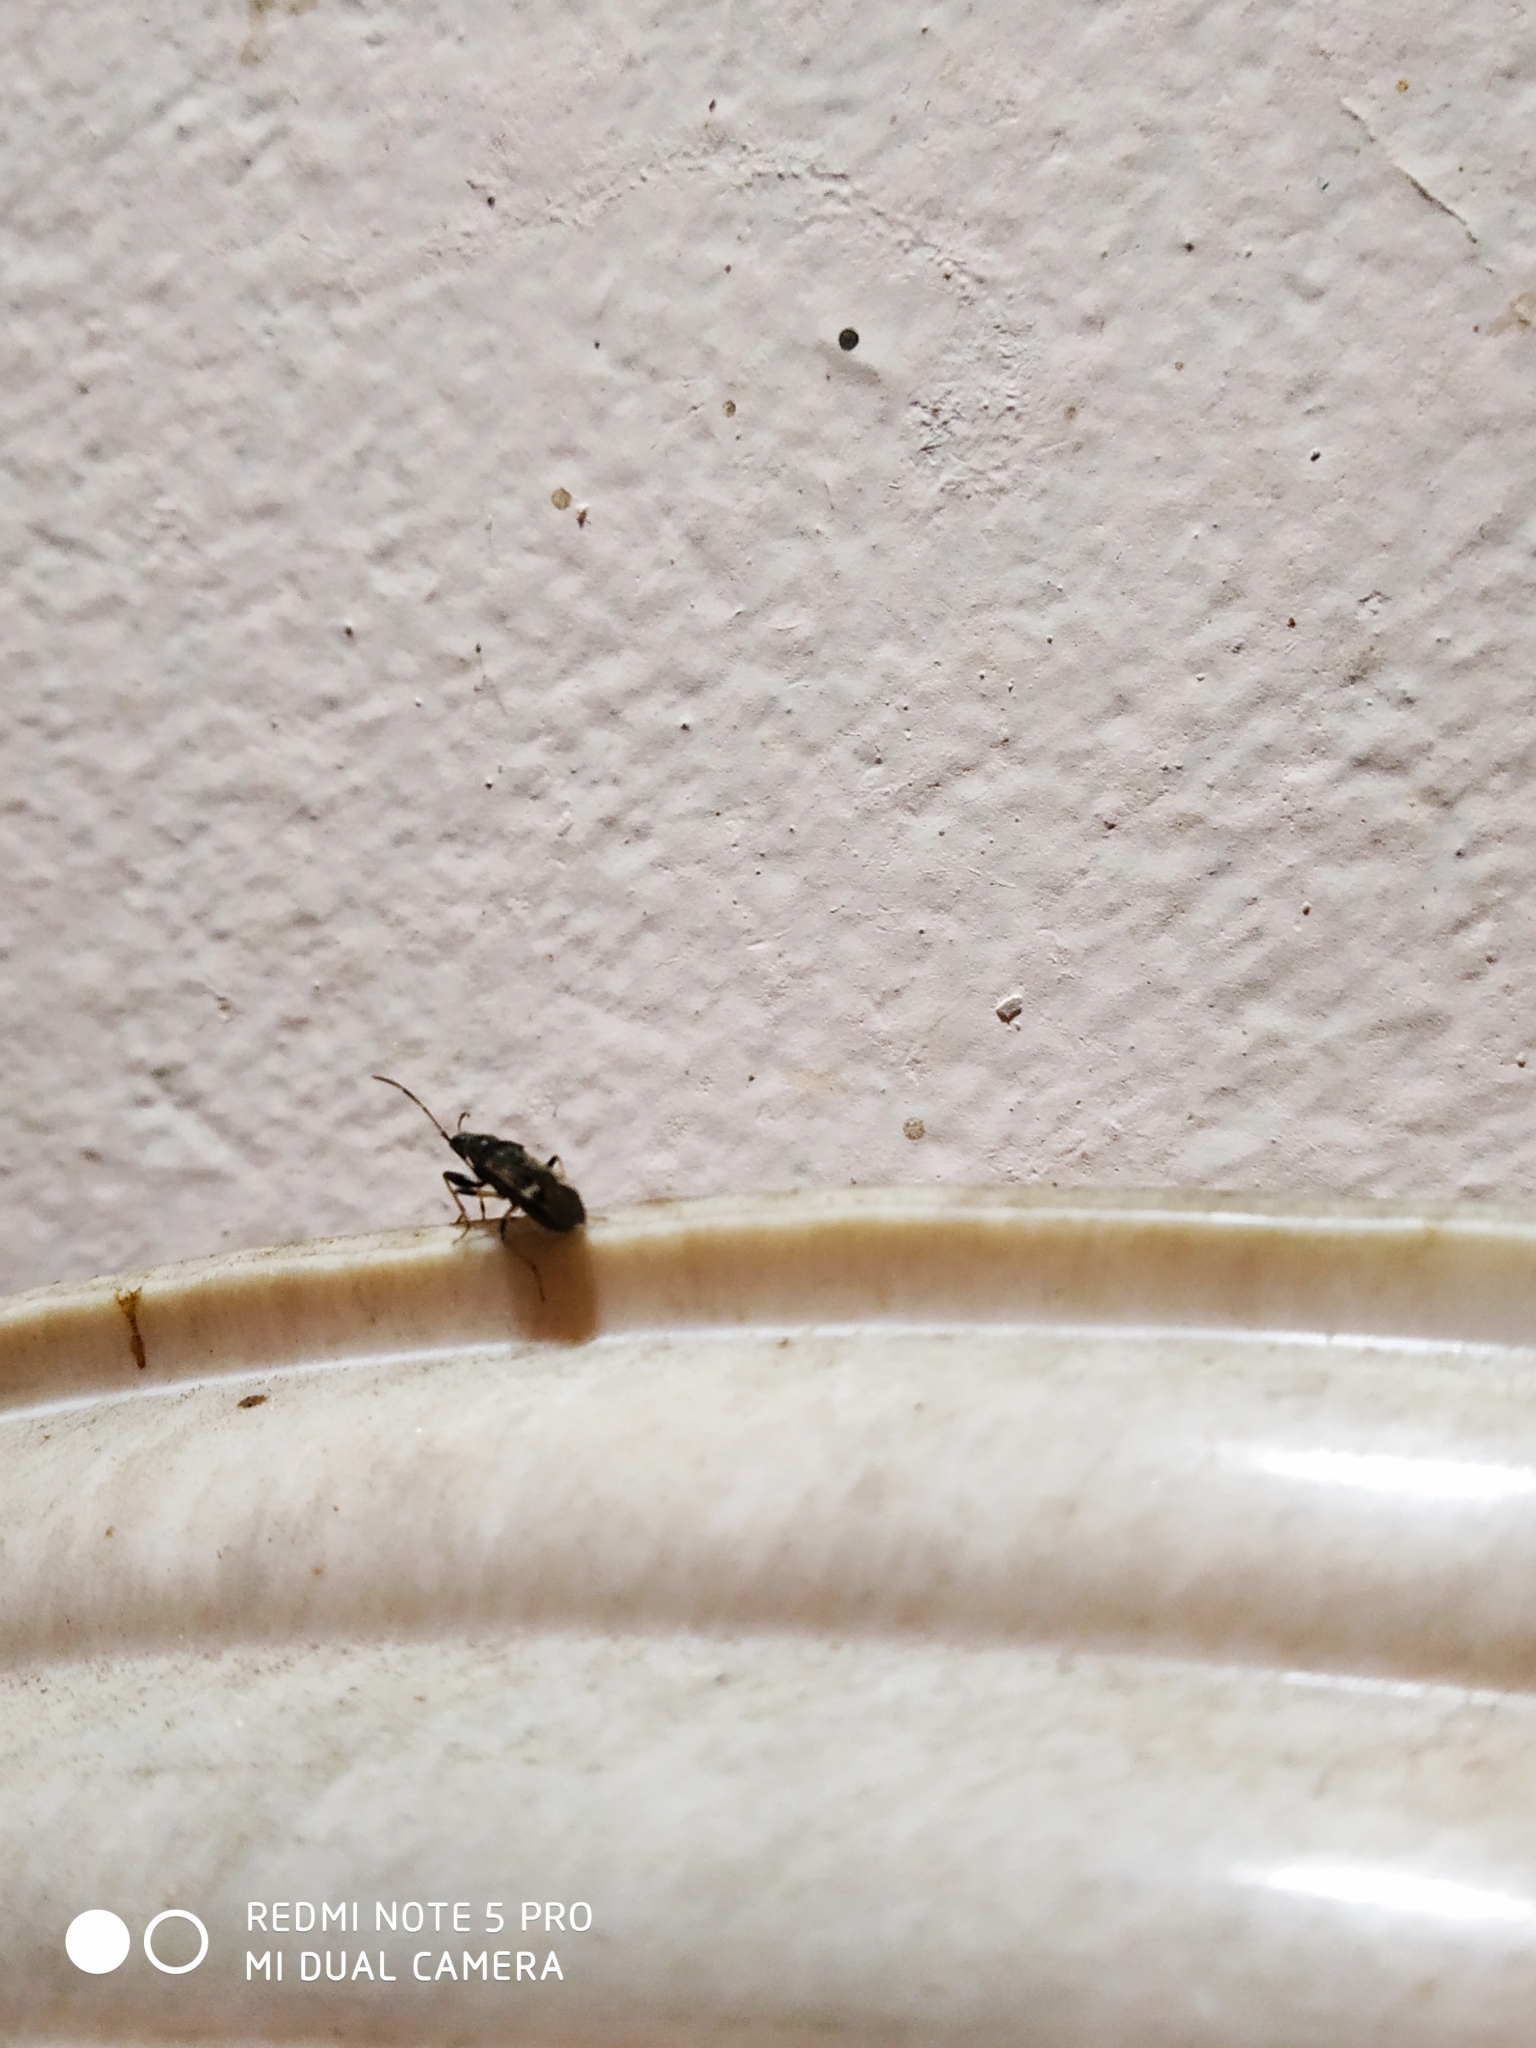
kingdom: Animalia
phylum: Arthropoda
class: Insecta
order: Hemiptera
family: Rhyparochromidae
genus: Horridipamera
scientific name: Horridipamera nietneri
